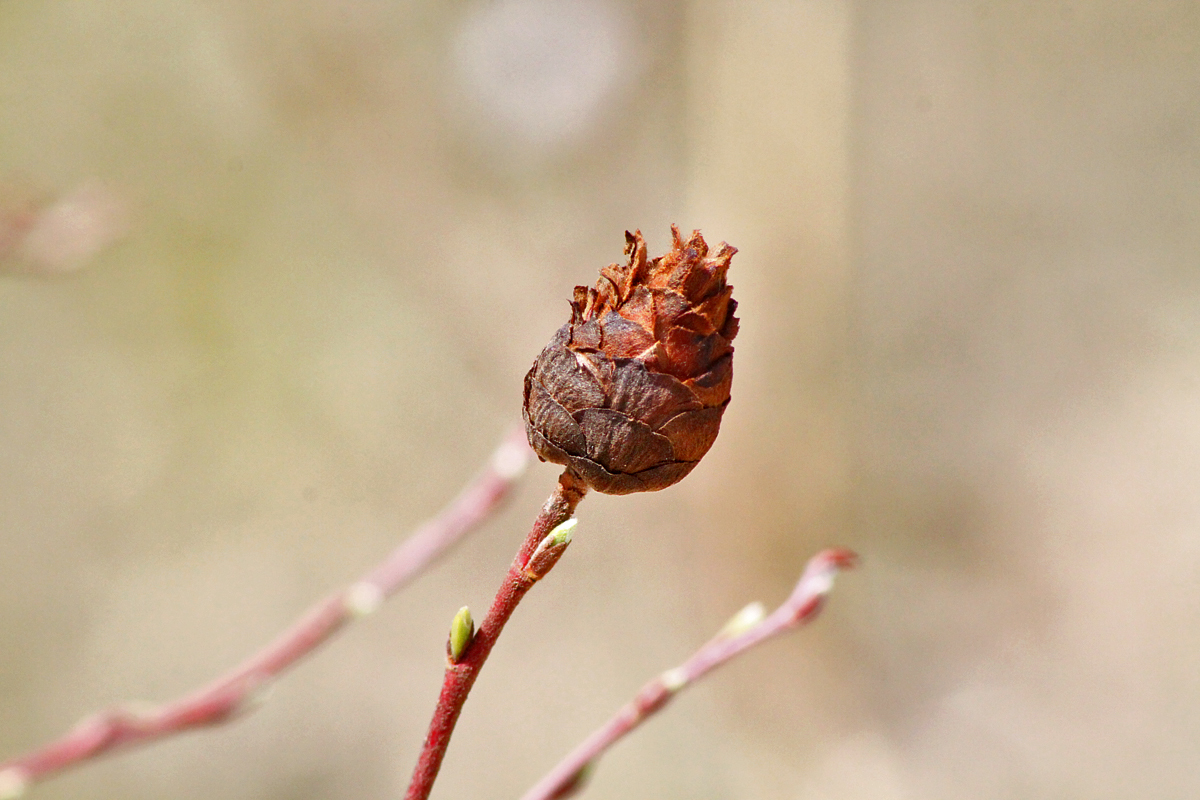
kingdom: Animalia
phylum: Arthropoda
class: Insecta
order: Diptera
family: Cecidomyiidae
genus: Rabdophaga
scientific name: Rabdophaga strobiloides
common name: Willow pinecone gall midge
